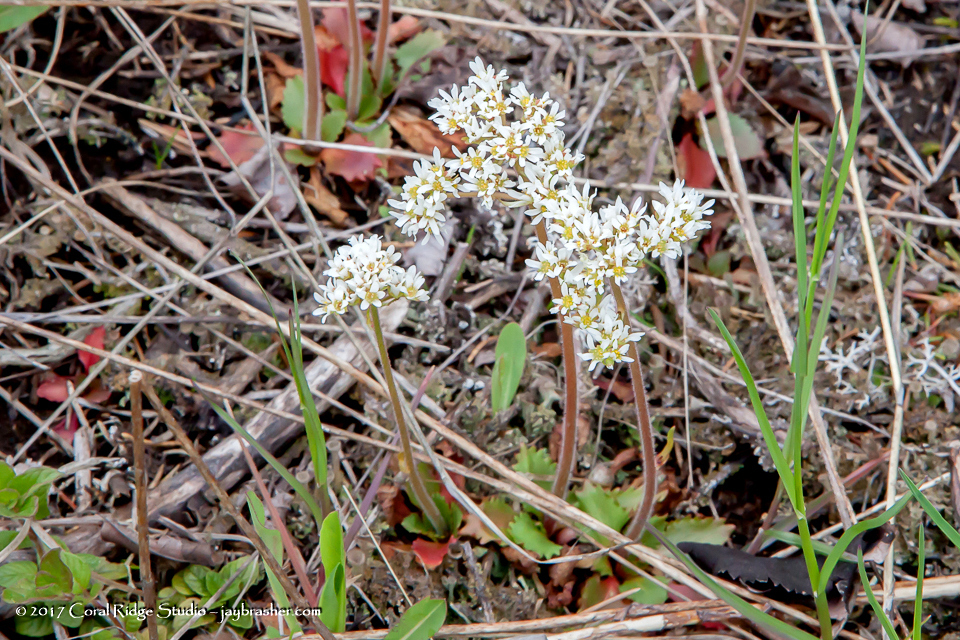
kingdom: Plantae
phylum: Tracheophyta
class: Magnoliopsida
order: Saxifragales
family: Saxifragaceae
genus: Micranthes
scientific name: Micranthes virginiensis
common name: Early saxifrage
